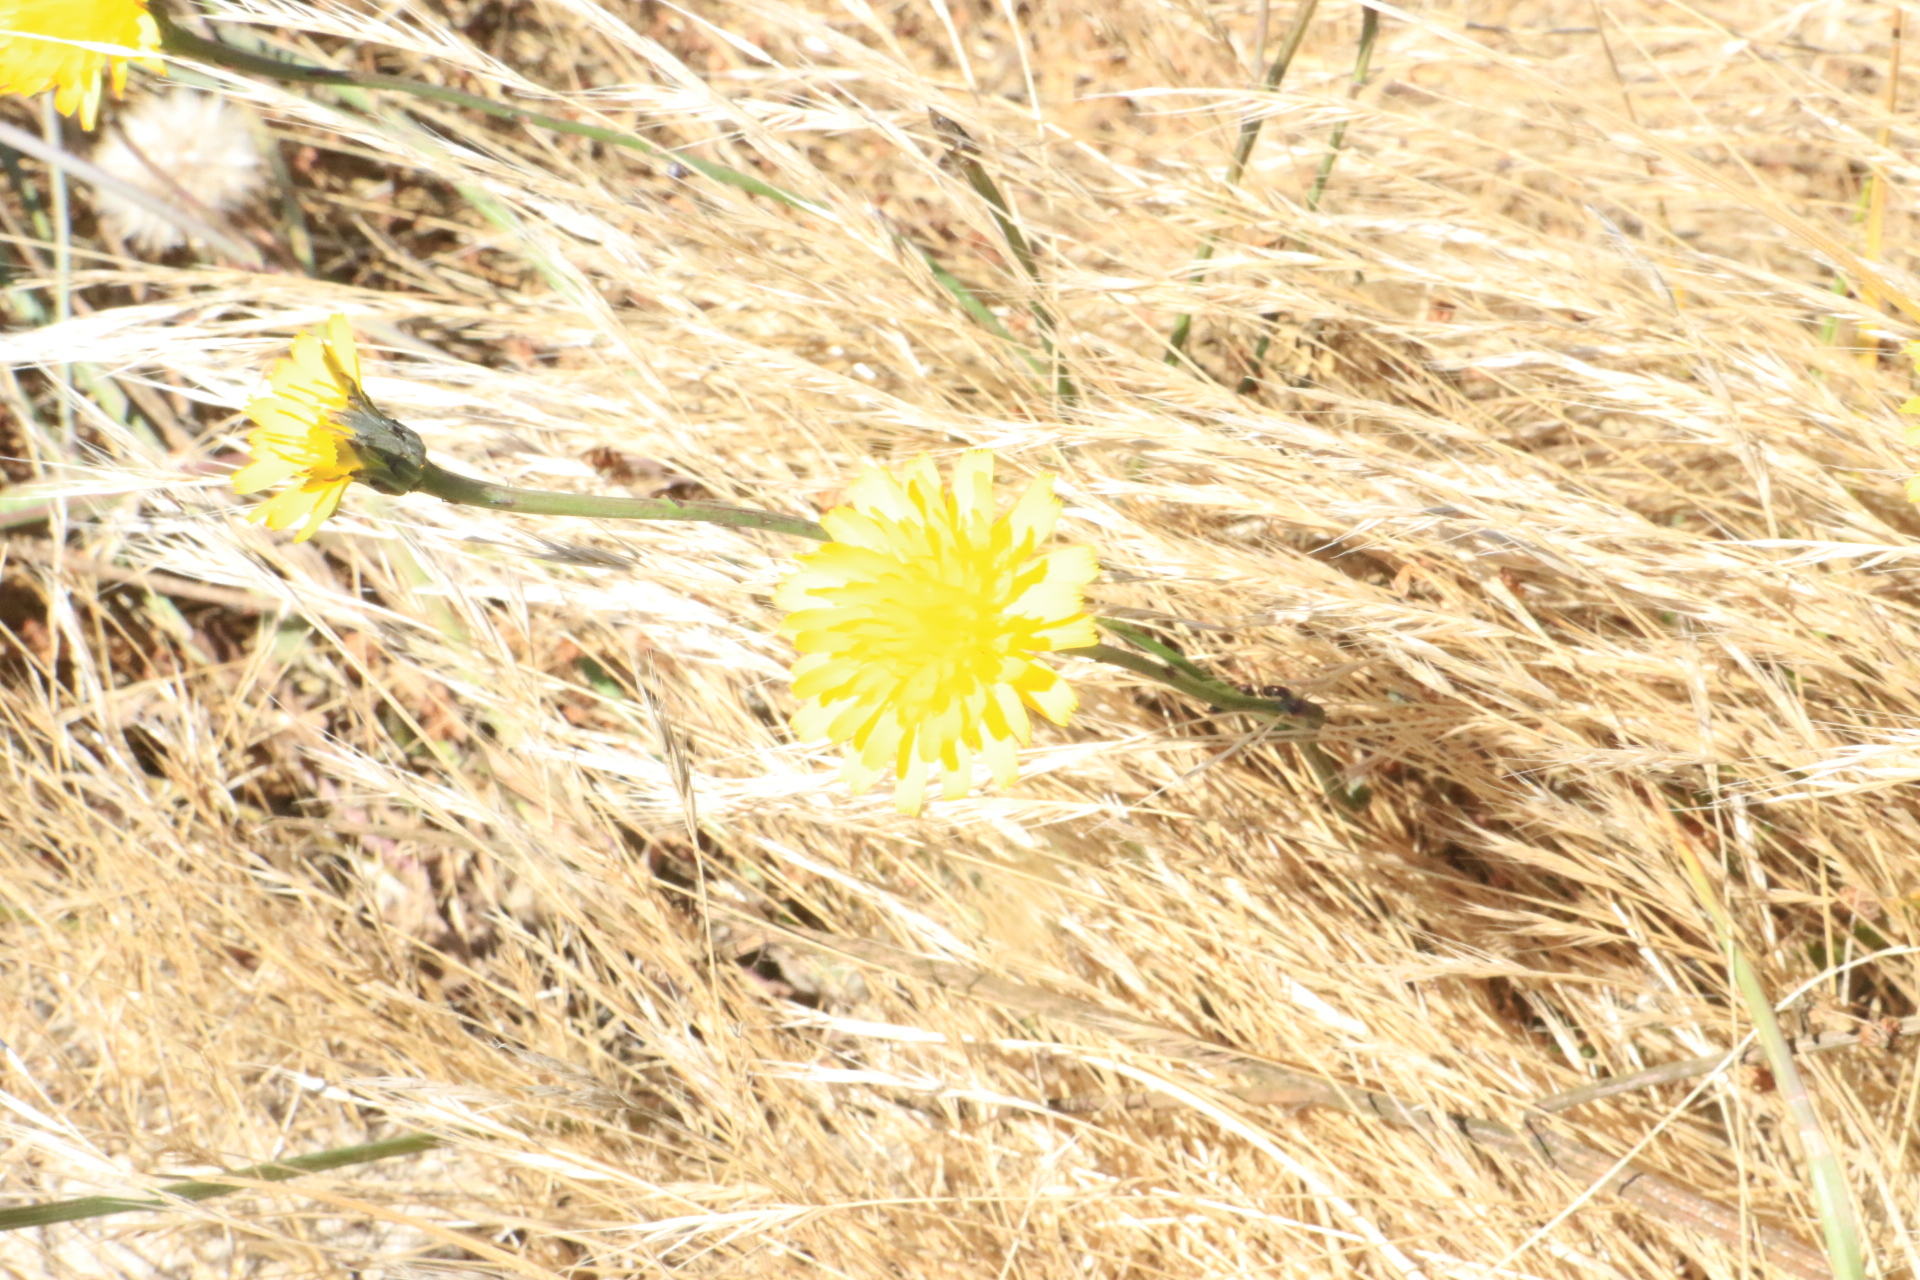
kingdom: Plantae
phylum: Tracheophyta
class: Magnoliopsida
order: Asterales
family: Asteraceae
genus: Hypochaeris
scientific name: Hypochaeris radicata
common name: Flatweed
